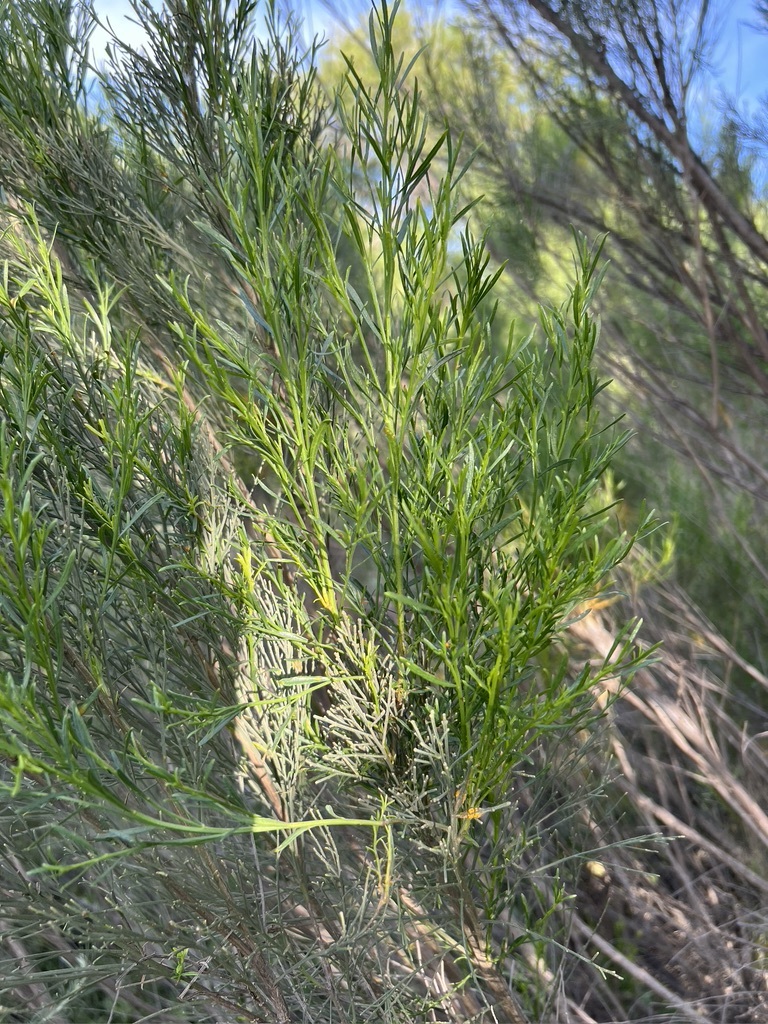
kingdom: Plantae
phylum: Tracheophyta
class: Magnoliopsida
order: Asterales
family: Asteraceae
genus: Baccharis
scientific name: Baccharis sarothroides
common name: Desert-broom
